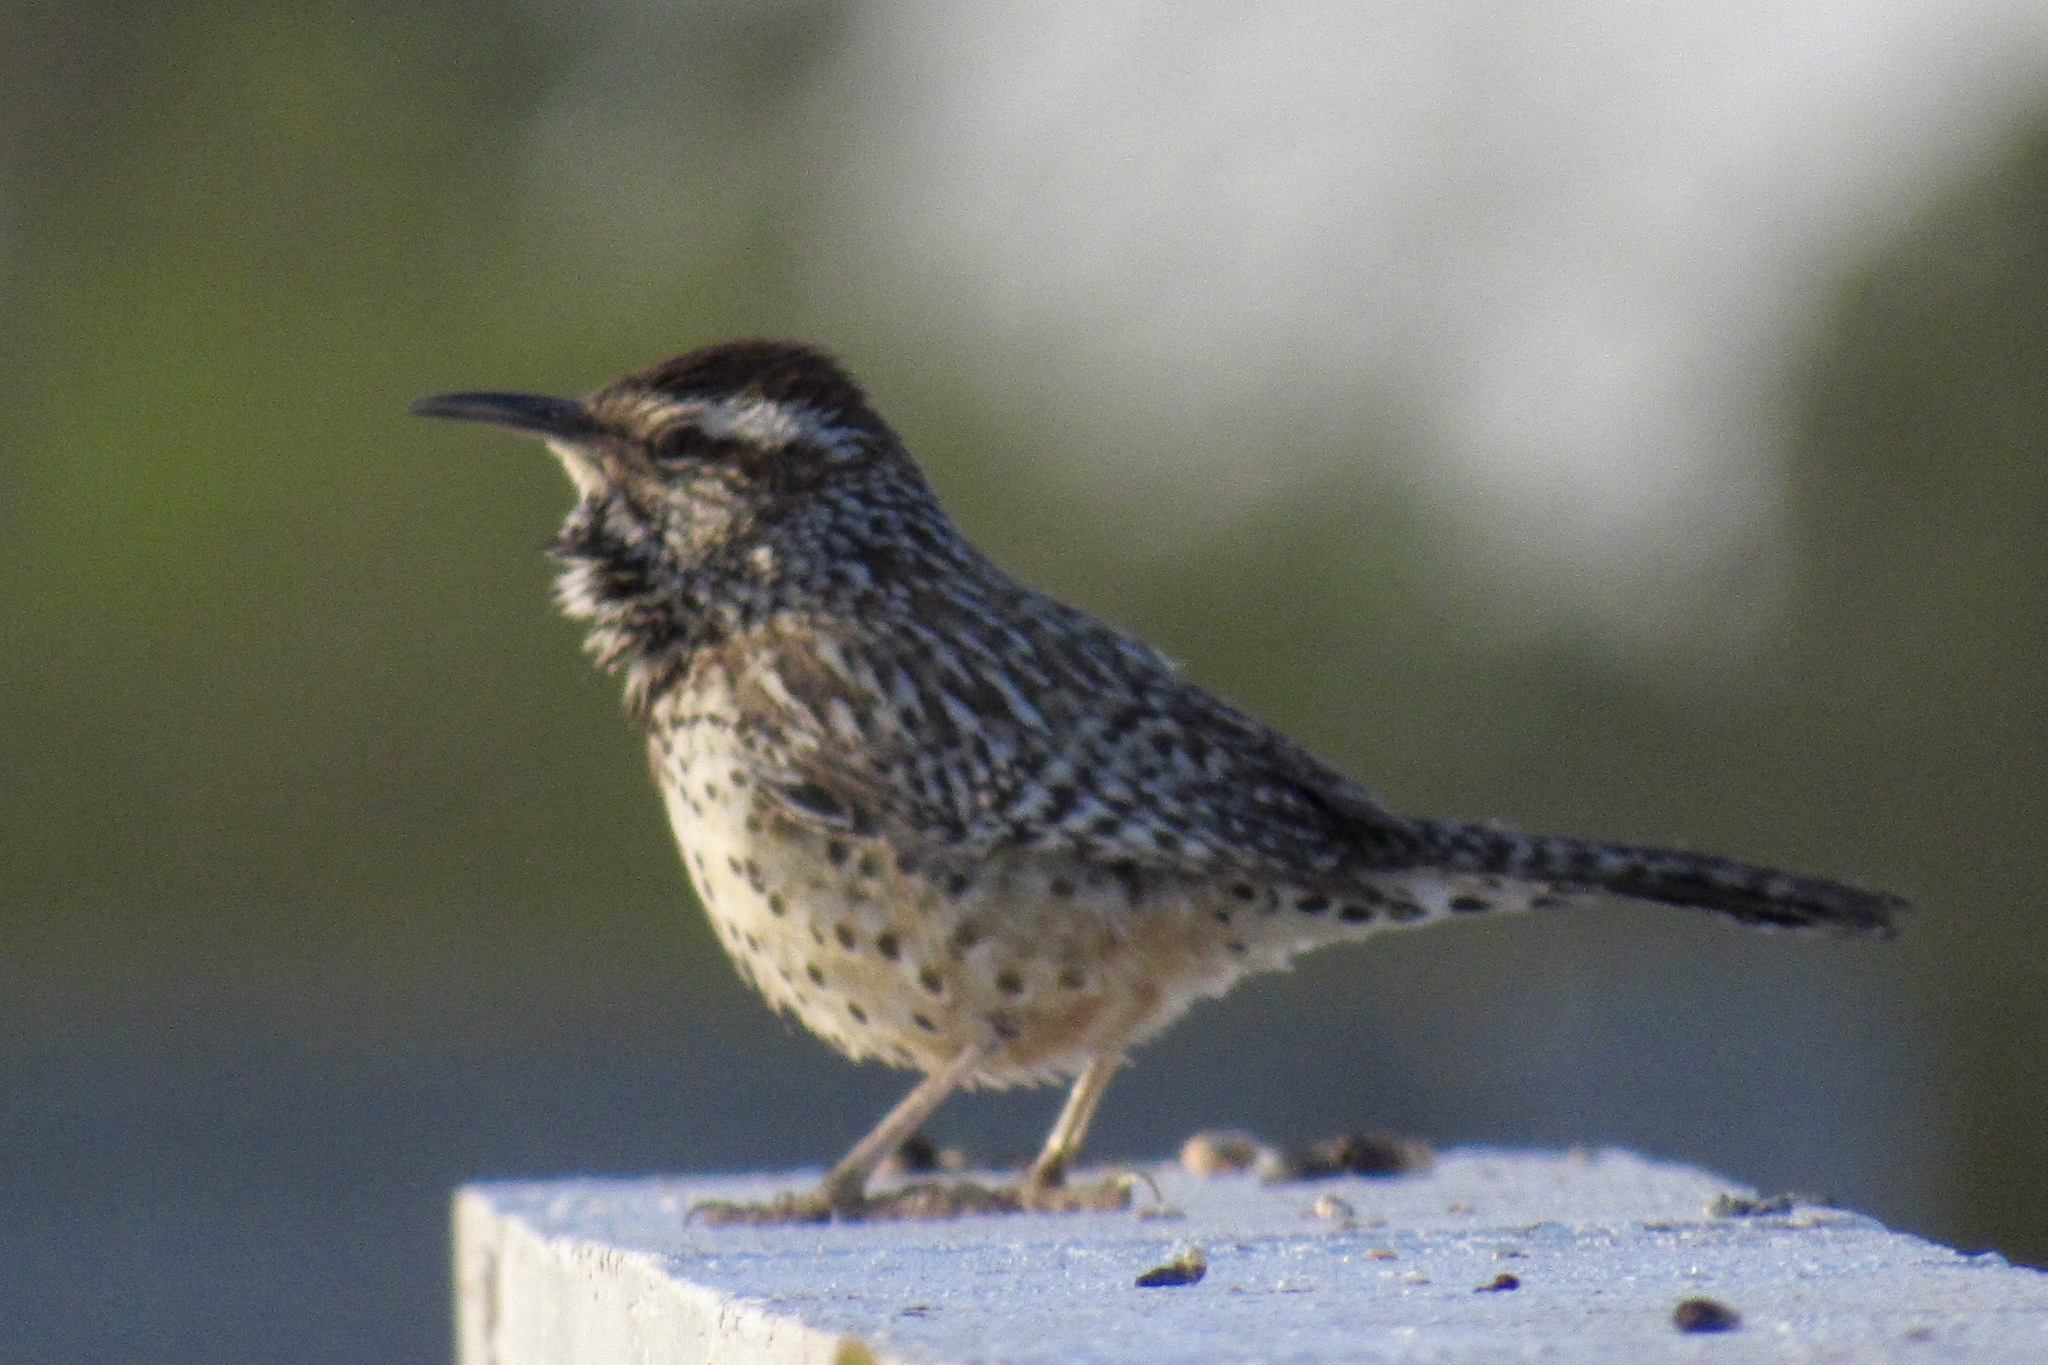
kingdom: Animalia
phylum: Chordata
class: Aves
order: Passeriformes
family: Troglodytidae
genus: Campylorhynchus
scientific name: Campylorhynchus brunneicapillus
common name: Cactus wren
